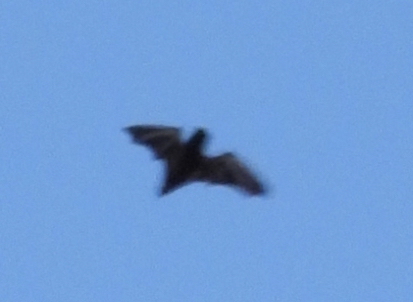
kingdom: Animalia
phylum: Chordata
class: Mammalia
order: Chiroptera
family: Vespertilionidae
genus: Lasiurus
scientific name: Lasiurus frantzii
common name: Desert red bat
